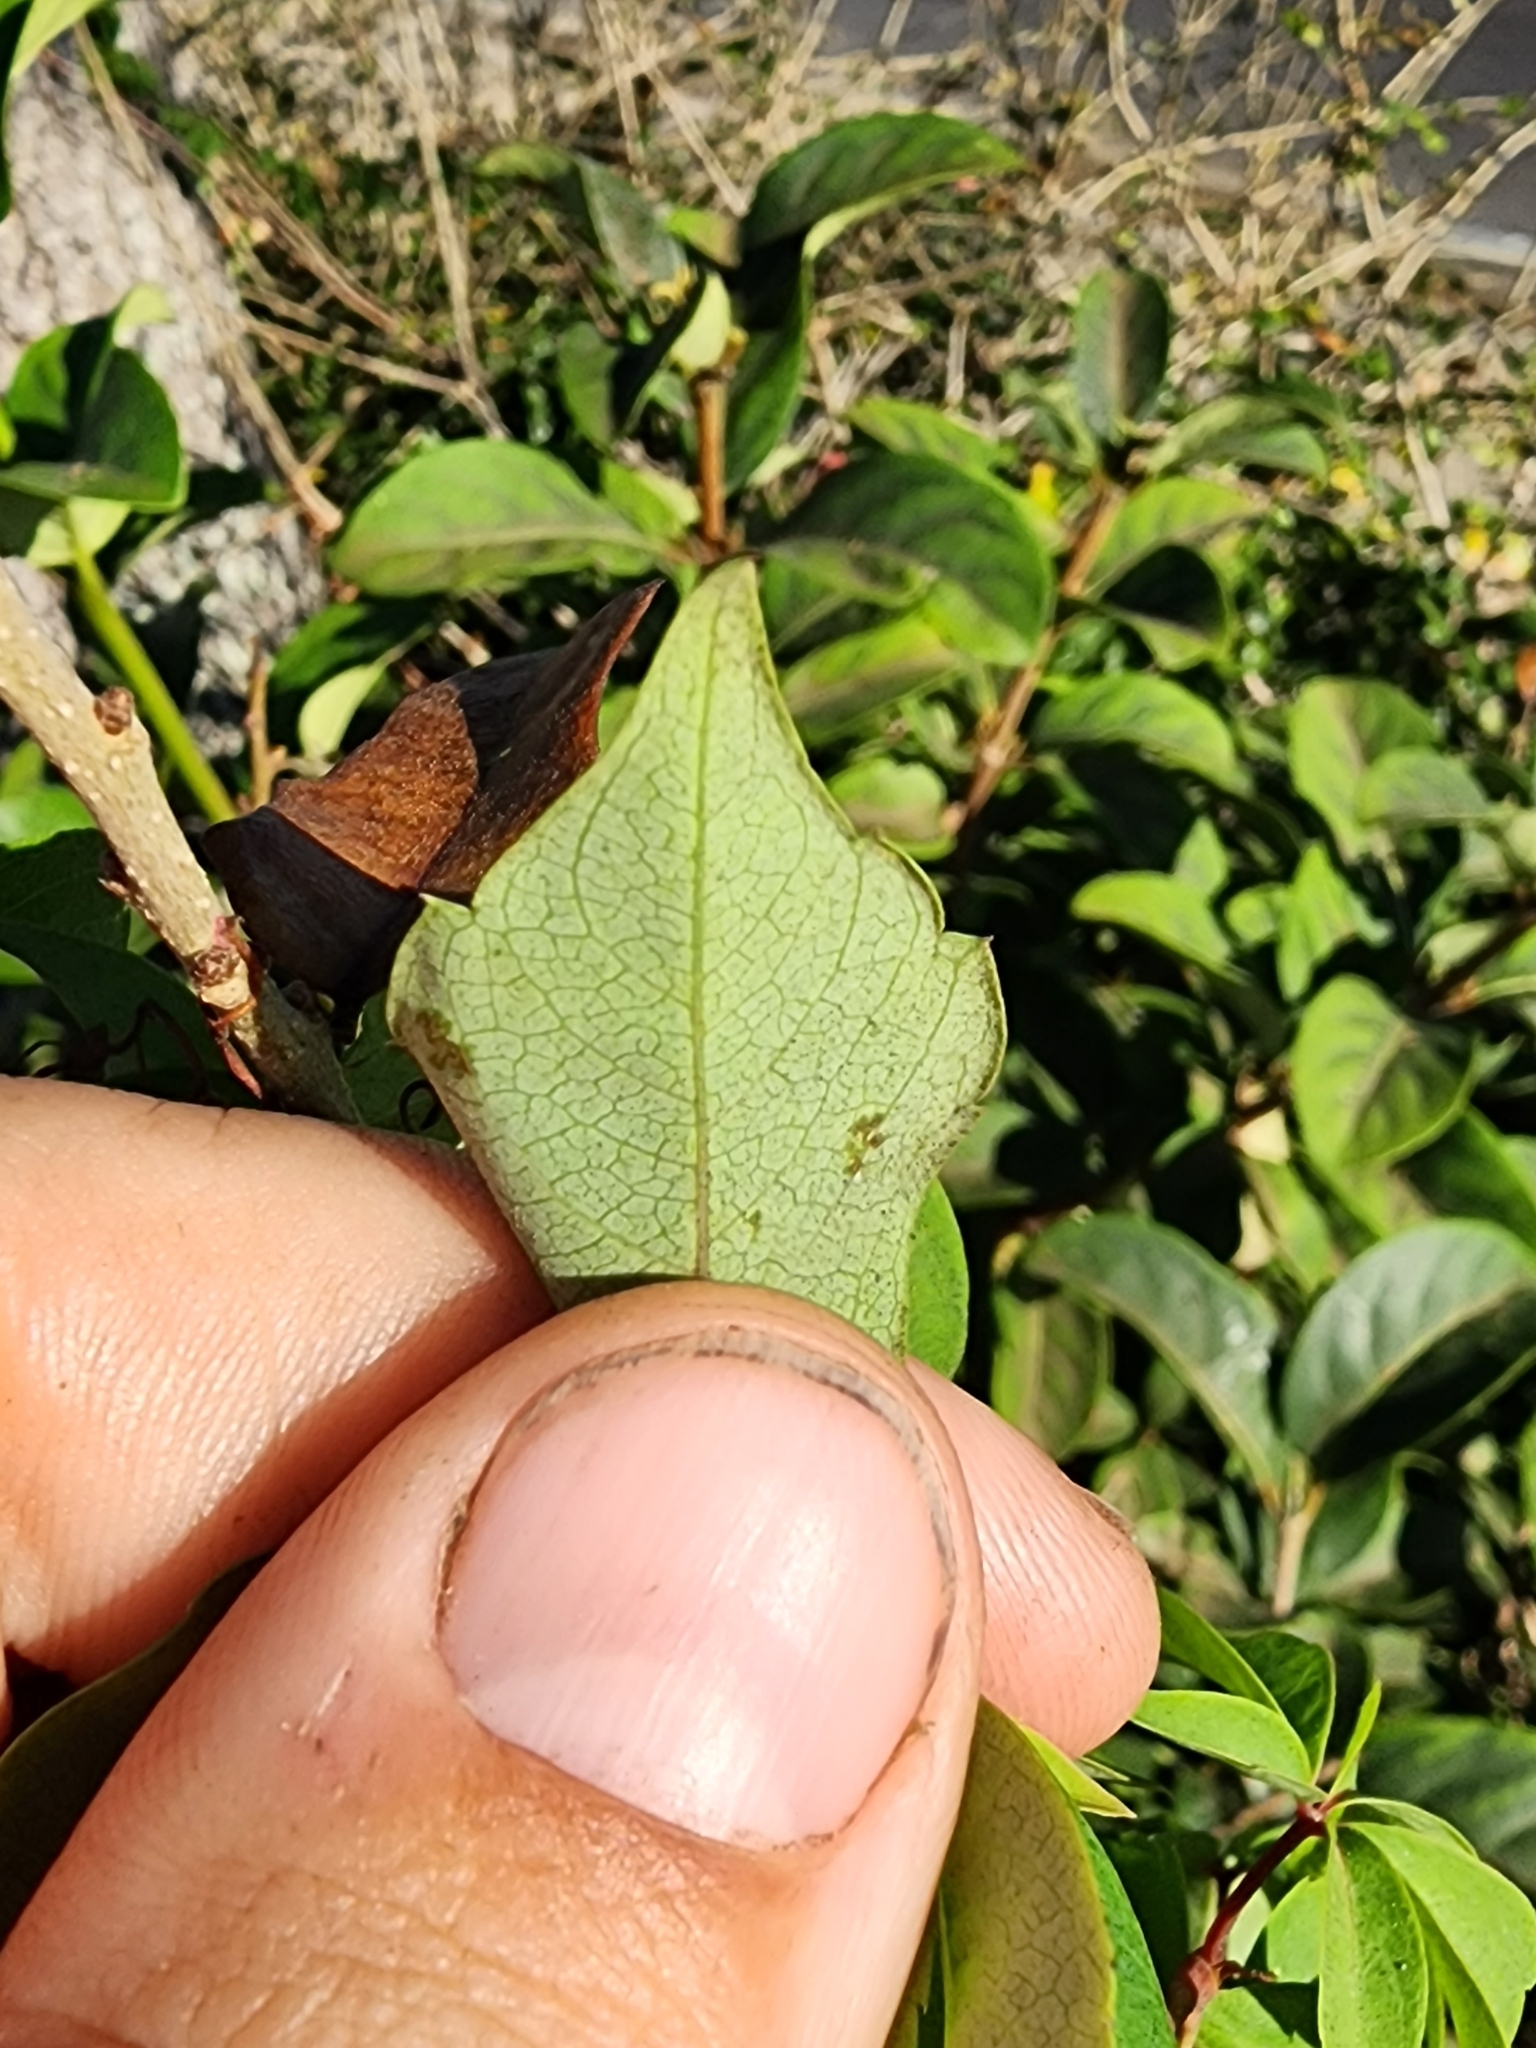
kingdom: Plantae
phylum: Tracheophyta
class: Magnoliopsida
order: Vitales
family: Vitaceae
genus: Parthenocissus
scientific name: Parthenocissus quinquefolia
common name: Virginia-creeper
